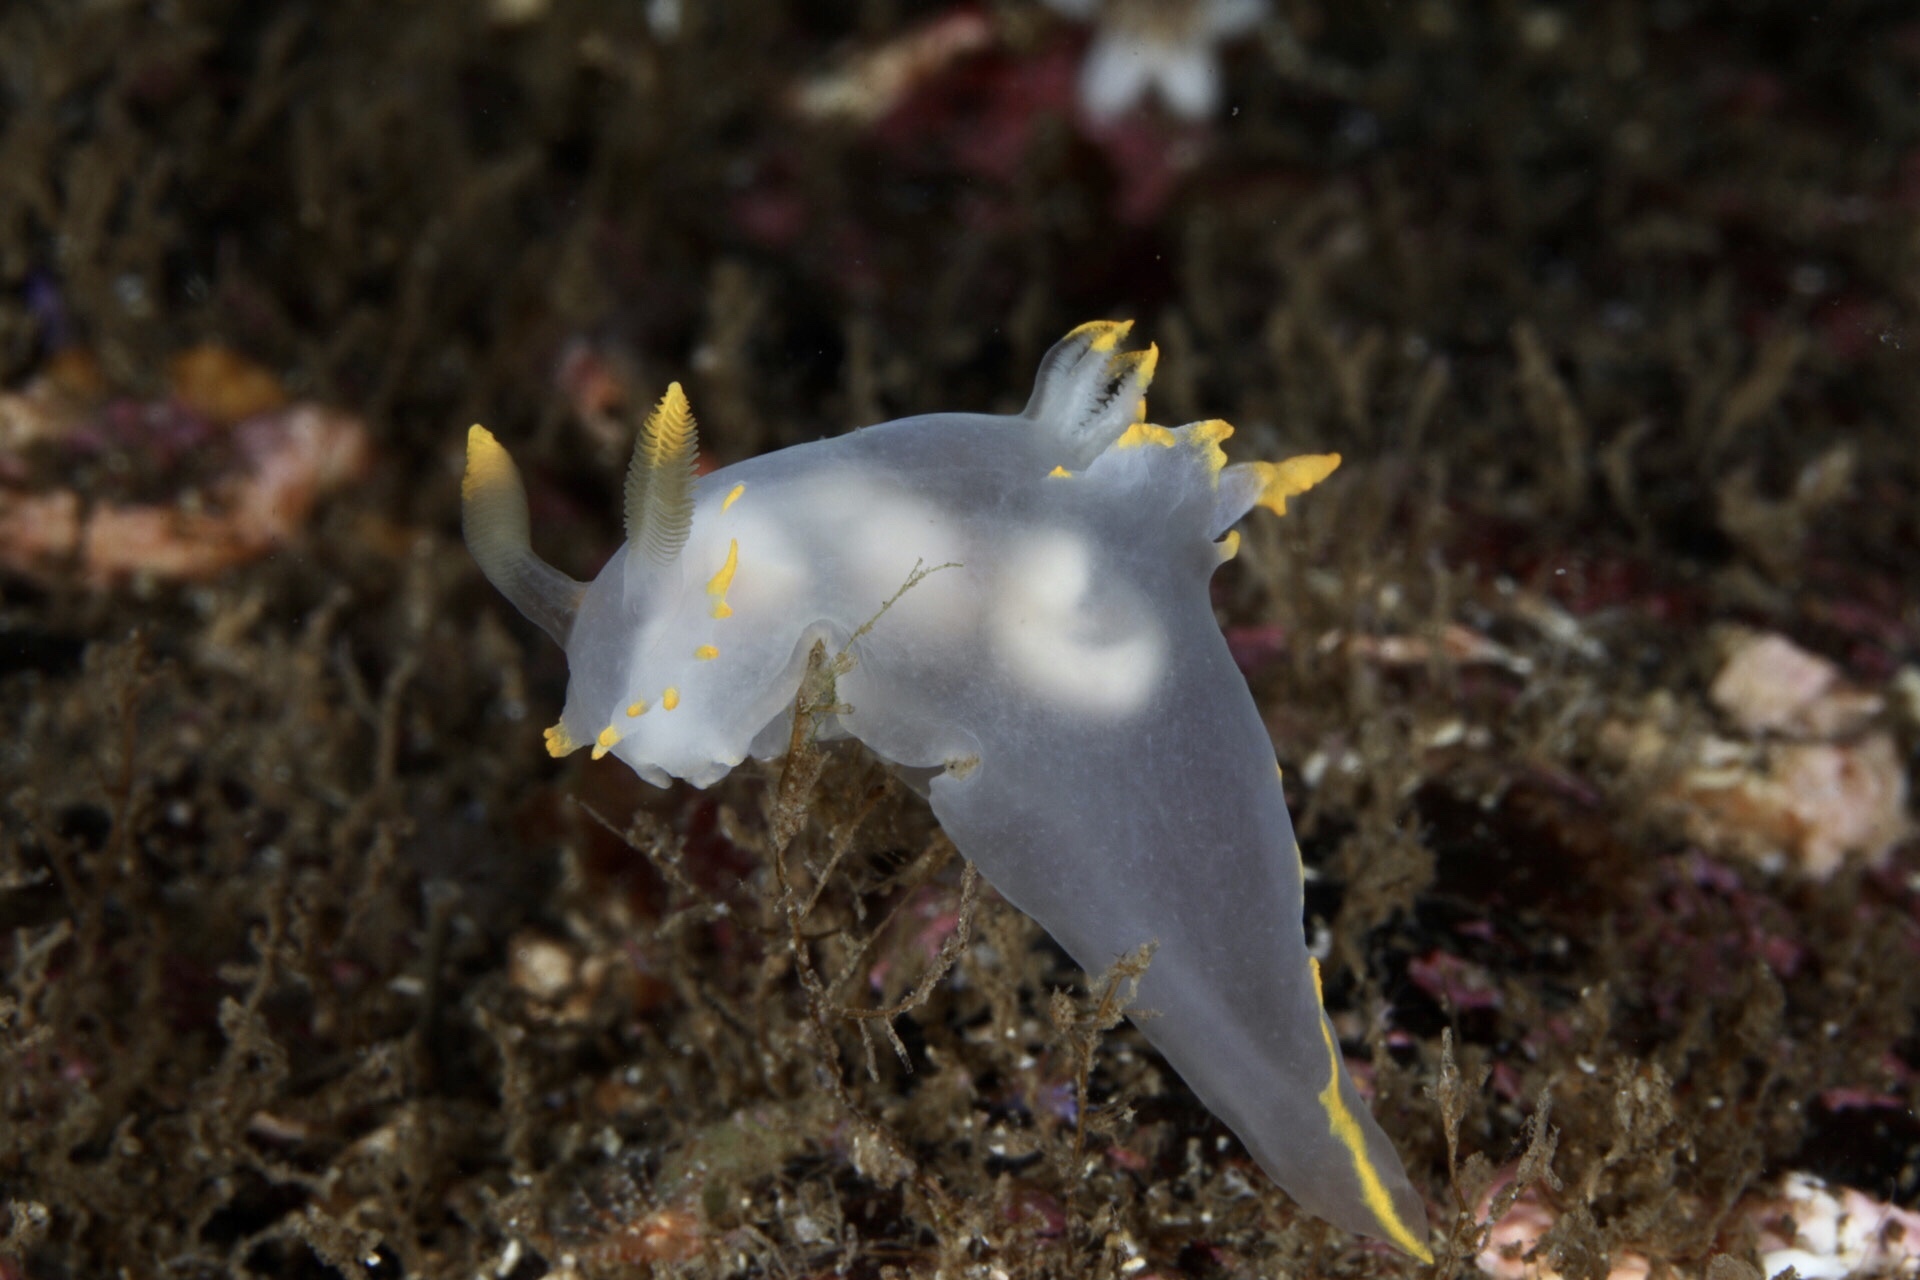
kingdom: Animalia
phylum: Mollusca
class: Gastropoda
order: Nudibranchia
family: Polyceridae
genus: Polycera
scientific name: Polycera faeroensis
